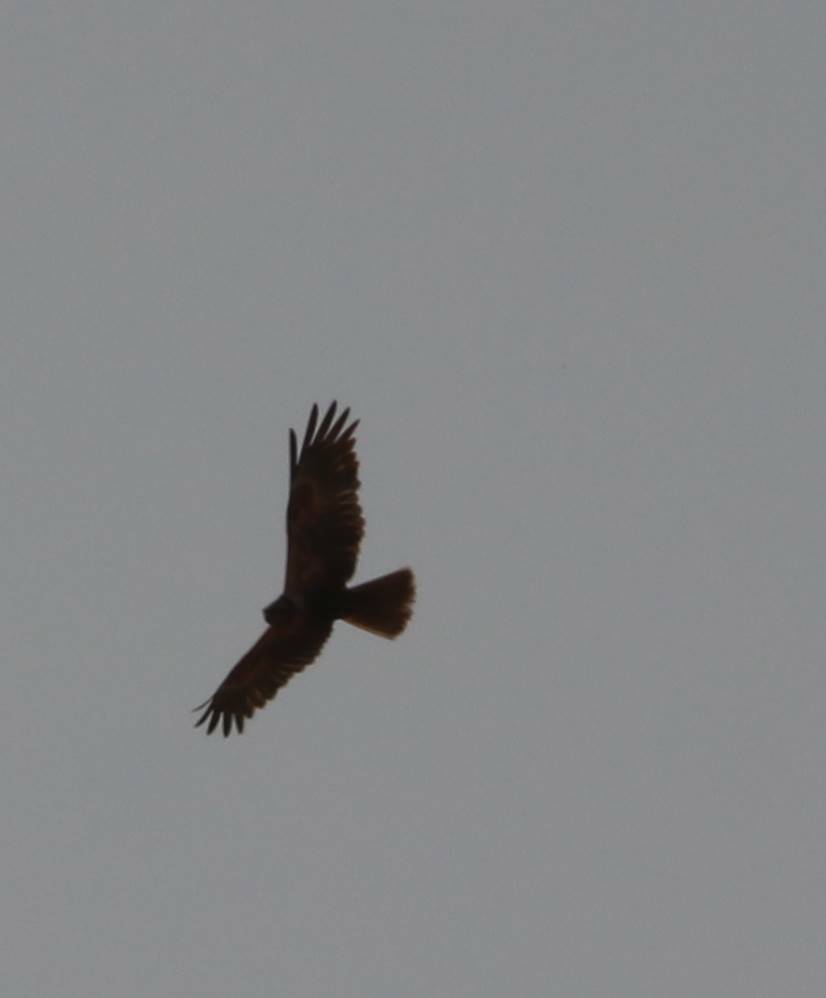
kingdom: Animalia
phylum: Chordata
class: Aves
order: Accipitriformes
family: Accipitridae
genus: Circus
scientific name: Circus aeruginosus
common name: Western marsh harrier
